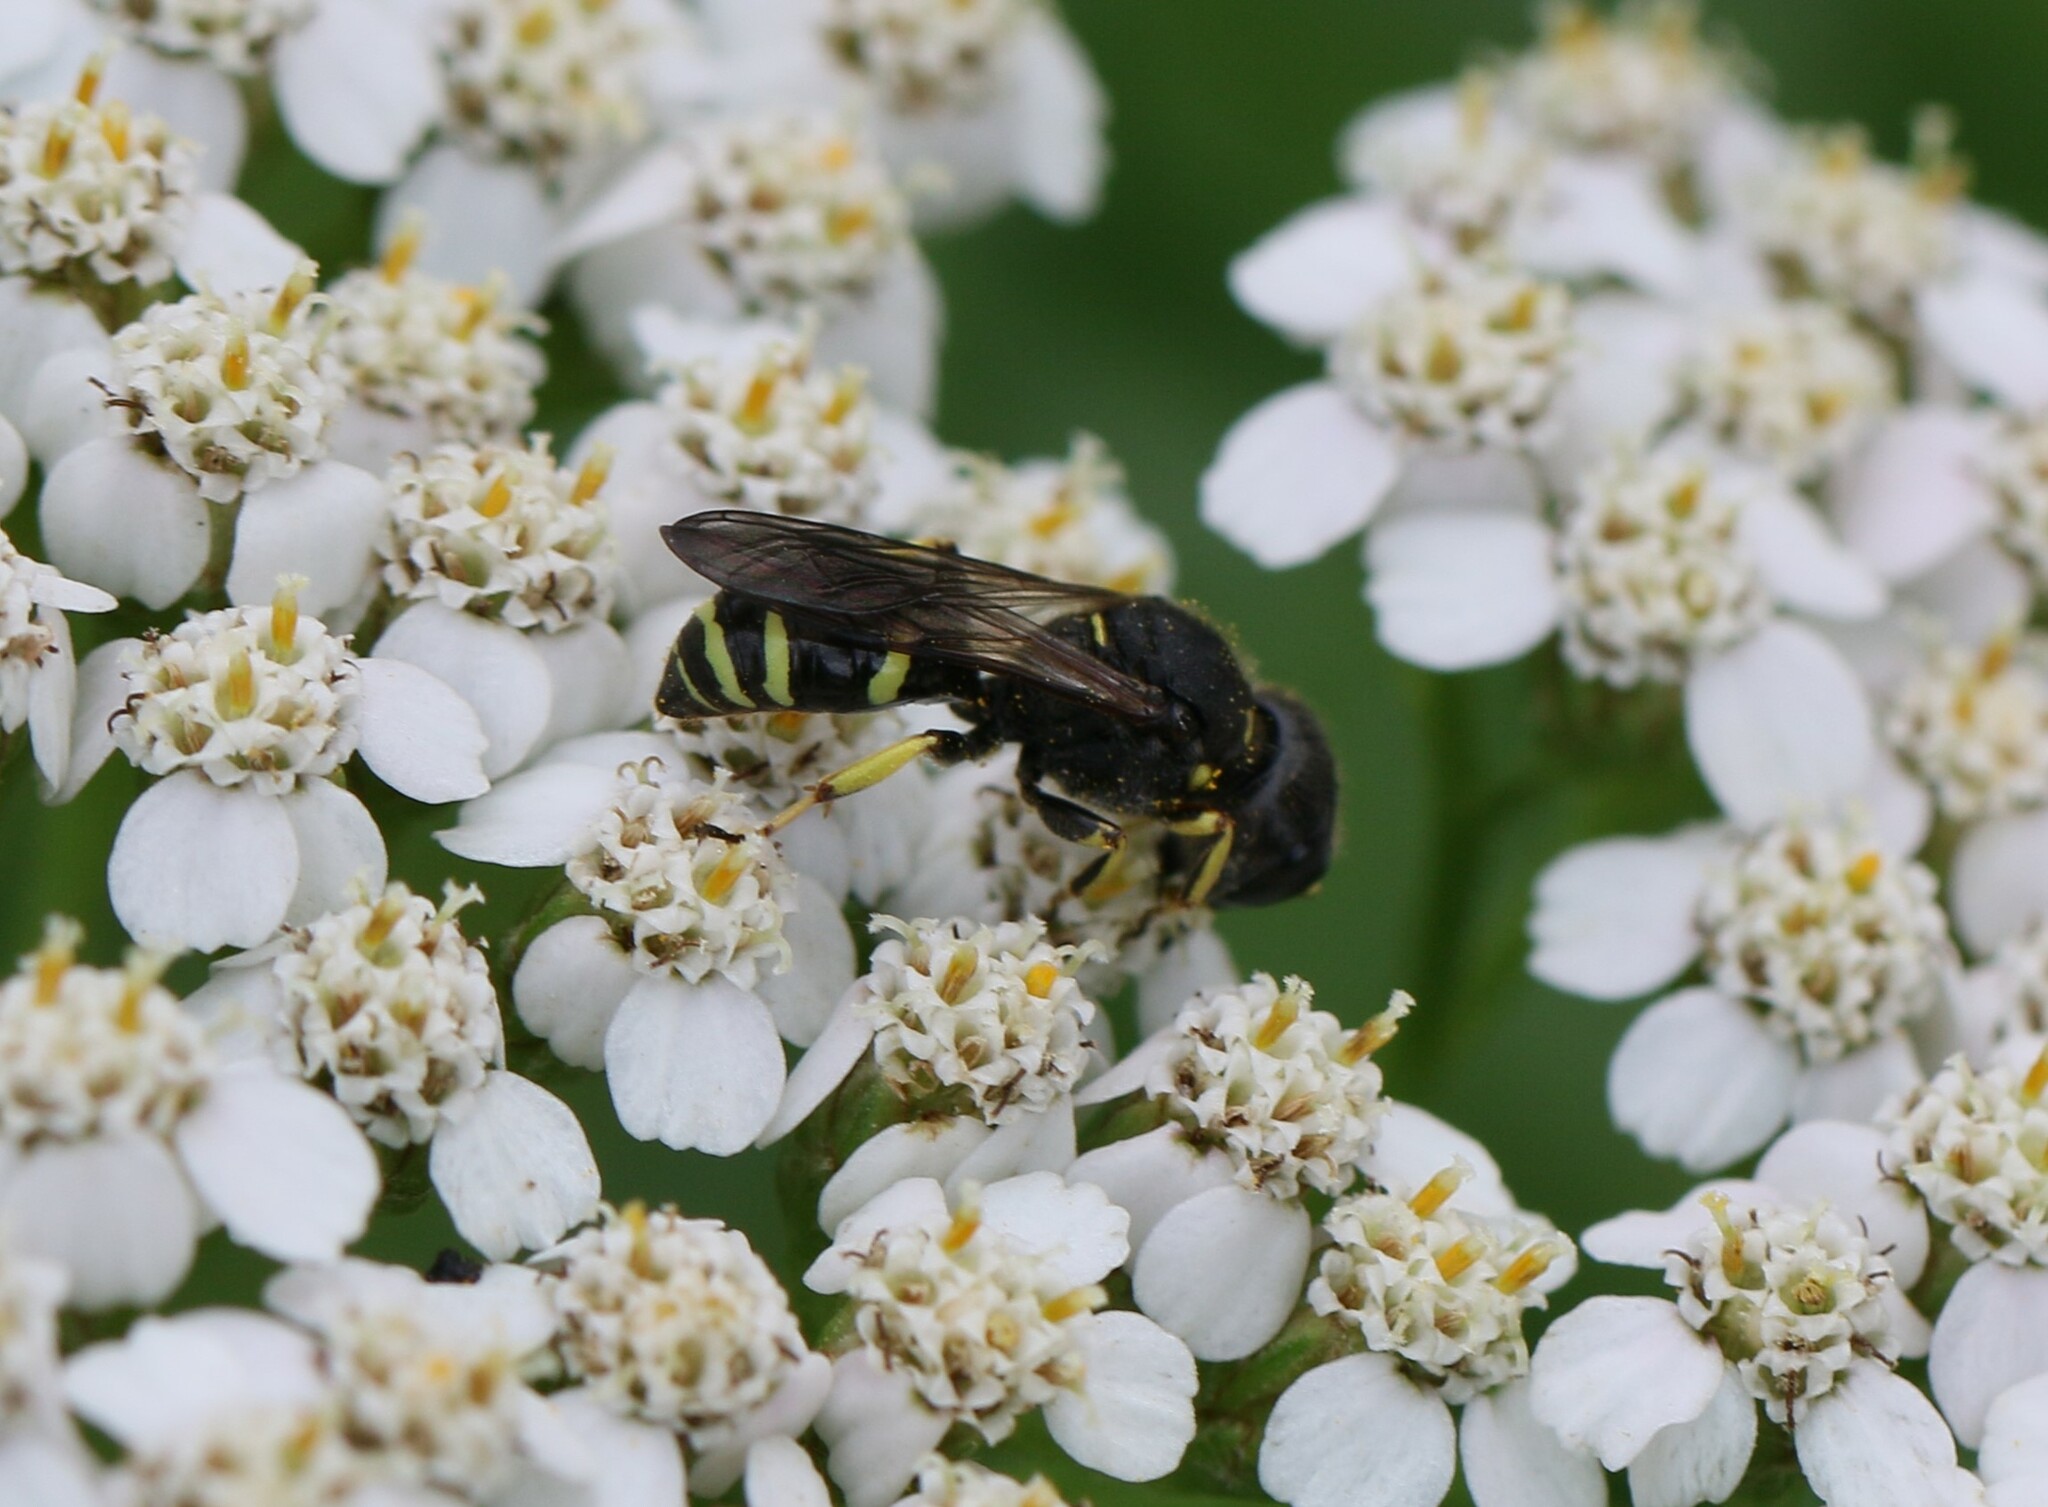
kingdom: Animalia
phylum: Arthropoda
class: Insecta
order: Hymenoptera
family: Crabronidae
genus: Ectemnius
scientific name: Ectemnius continuus
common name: Common ectemnius
